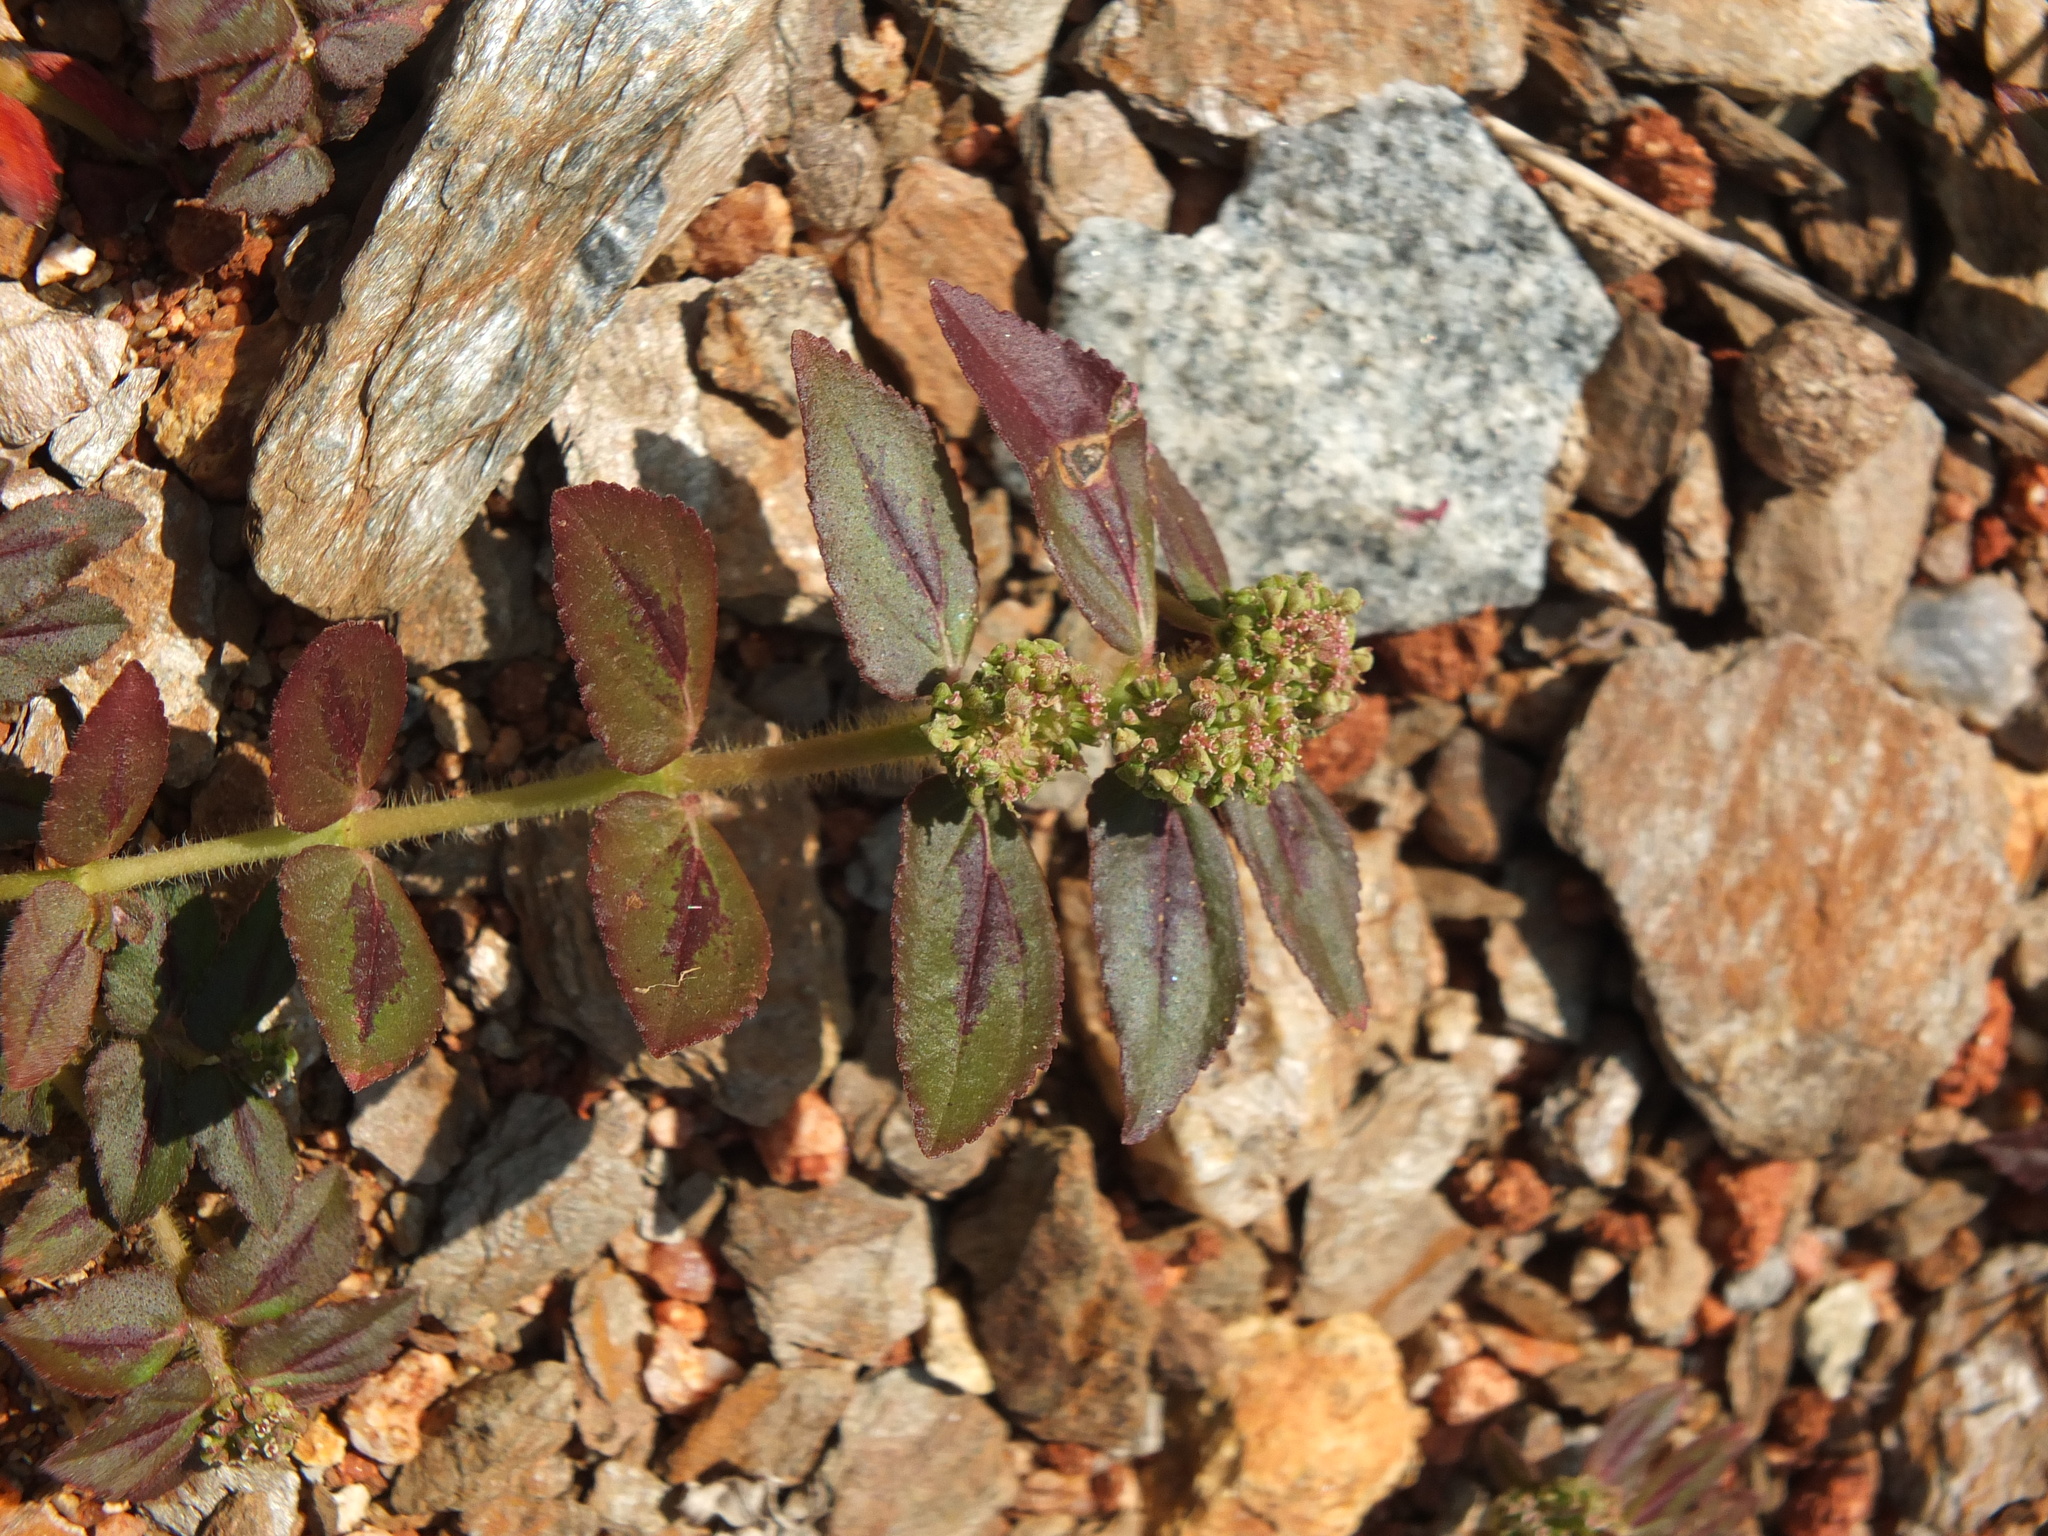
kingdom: Plantae
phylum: Tracheophyta
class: Magnoliopsida
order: Malpighiales
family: Euphorbiaceae
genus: Euphorbia
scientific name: Euphorbia hirta
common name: Pillpod sandmat
